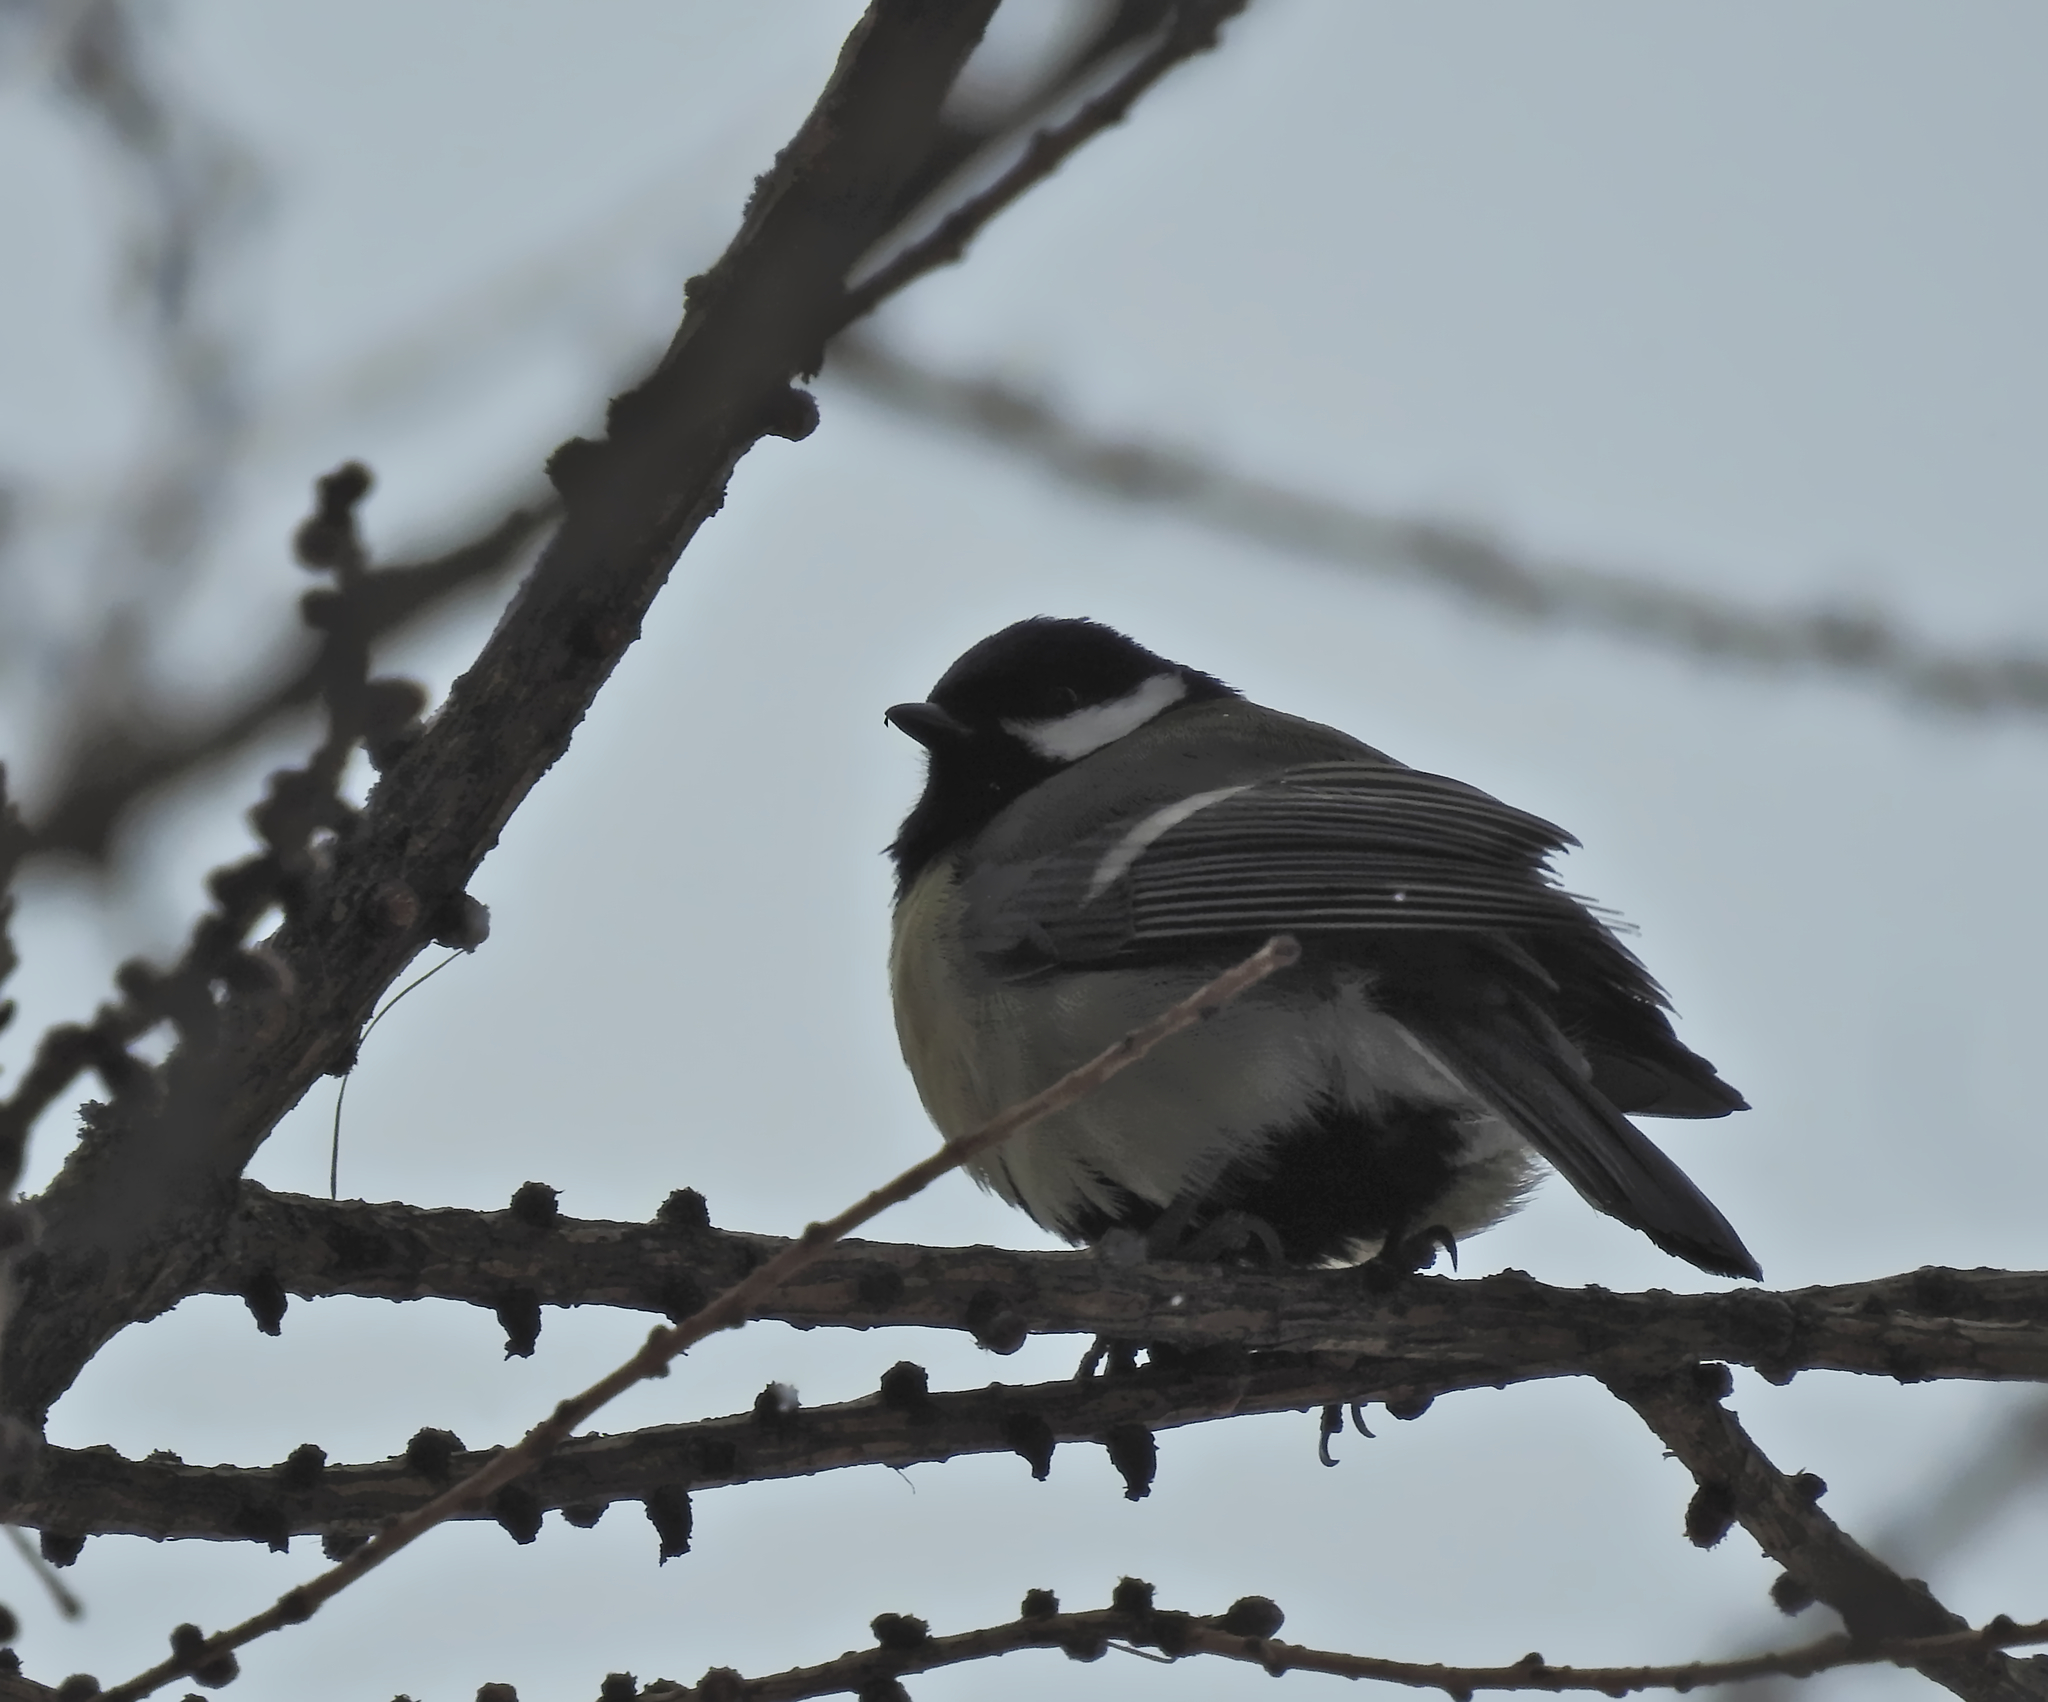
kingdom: Animalia
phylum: Chordata
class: Aves
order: Passeriformes
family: Paridae
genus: Parus
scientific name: Parus major
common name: Great tit
